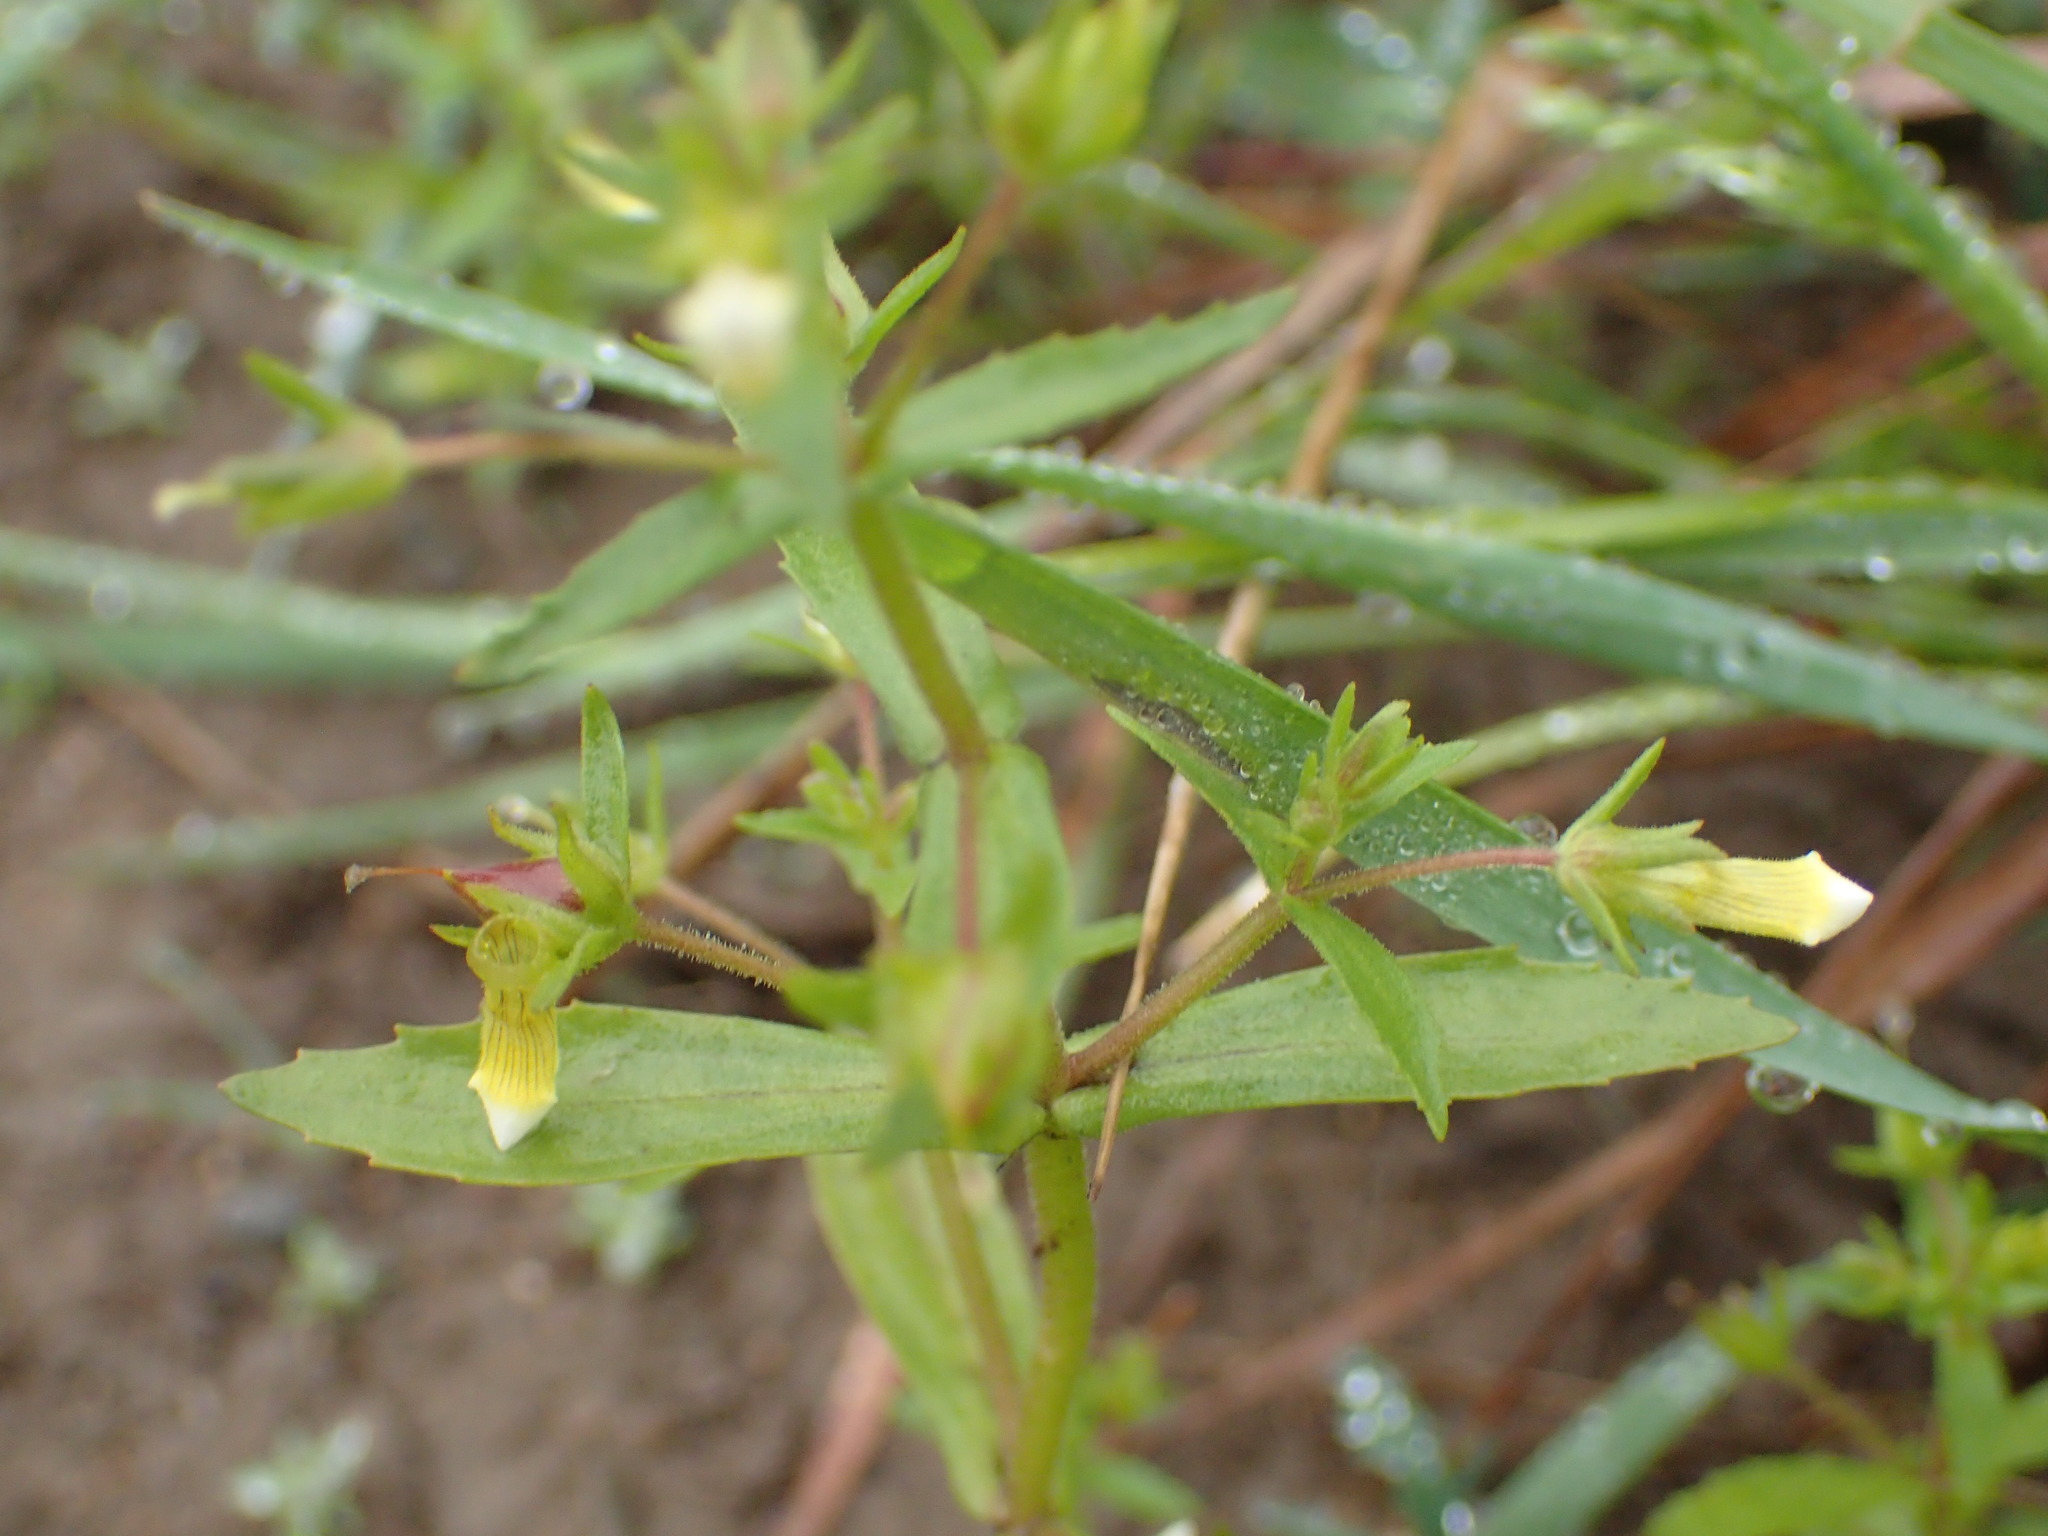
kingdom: Plantae
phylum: Tracheophyta
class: Magnoliopsida
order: Lamiales
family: Plantaginaceae
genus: Gratiola
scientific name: Gratiola neglecta
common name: American hedge-hyssop
